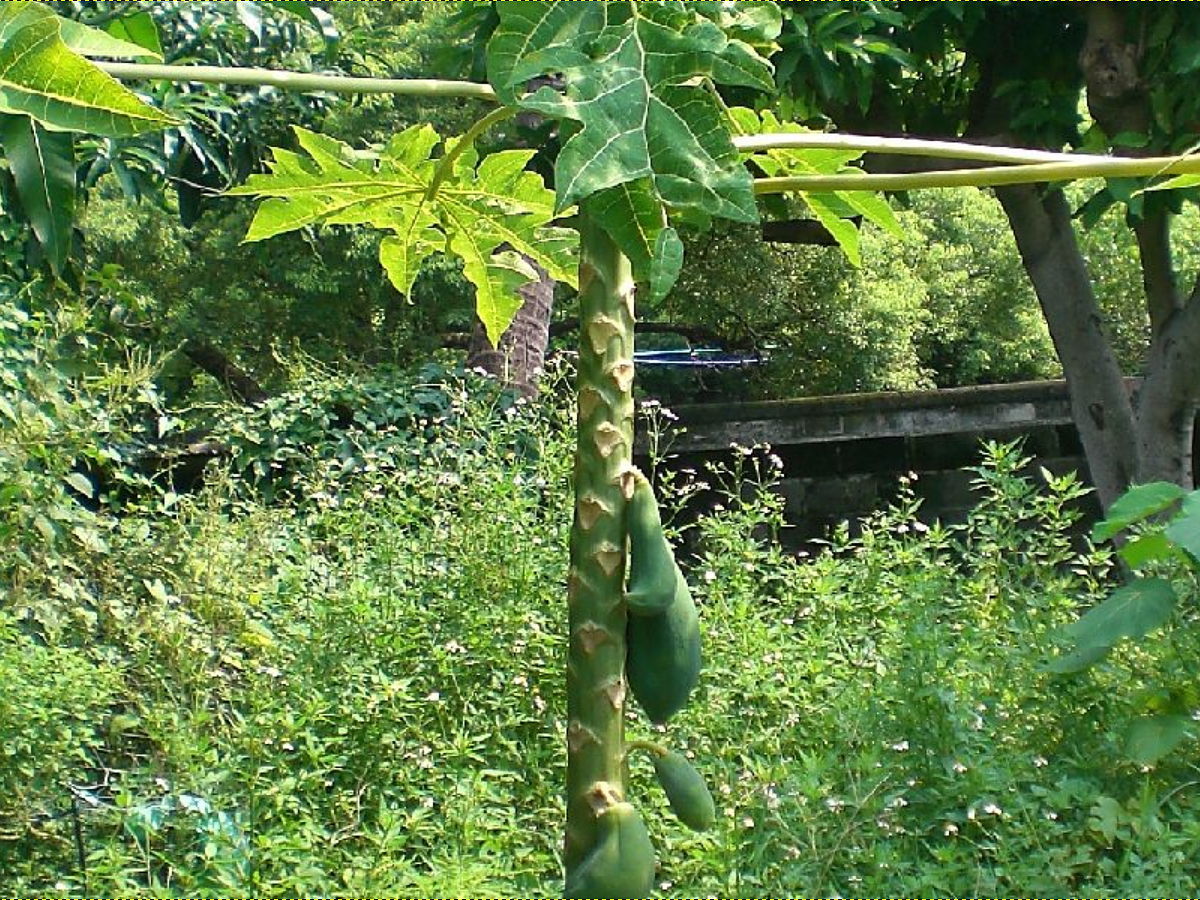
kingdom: Plantae
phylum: Tracheophyta
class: Magnoliopsida
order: Brassicales
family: Caricaceae
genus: Carica
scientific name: Carica papaya
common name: Papaya
